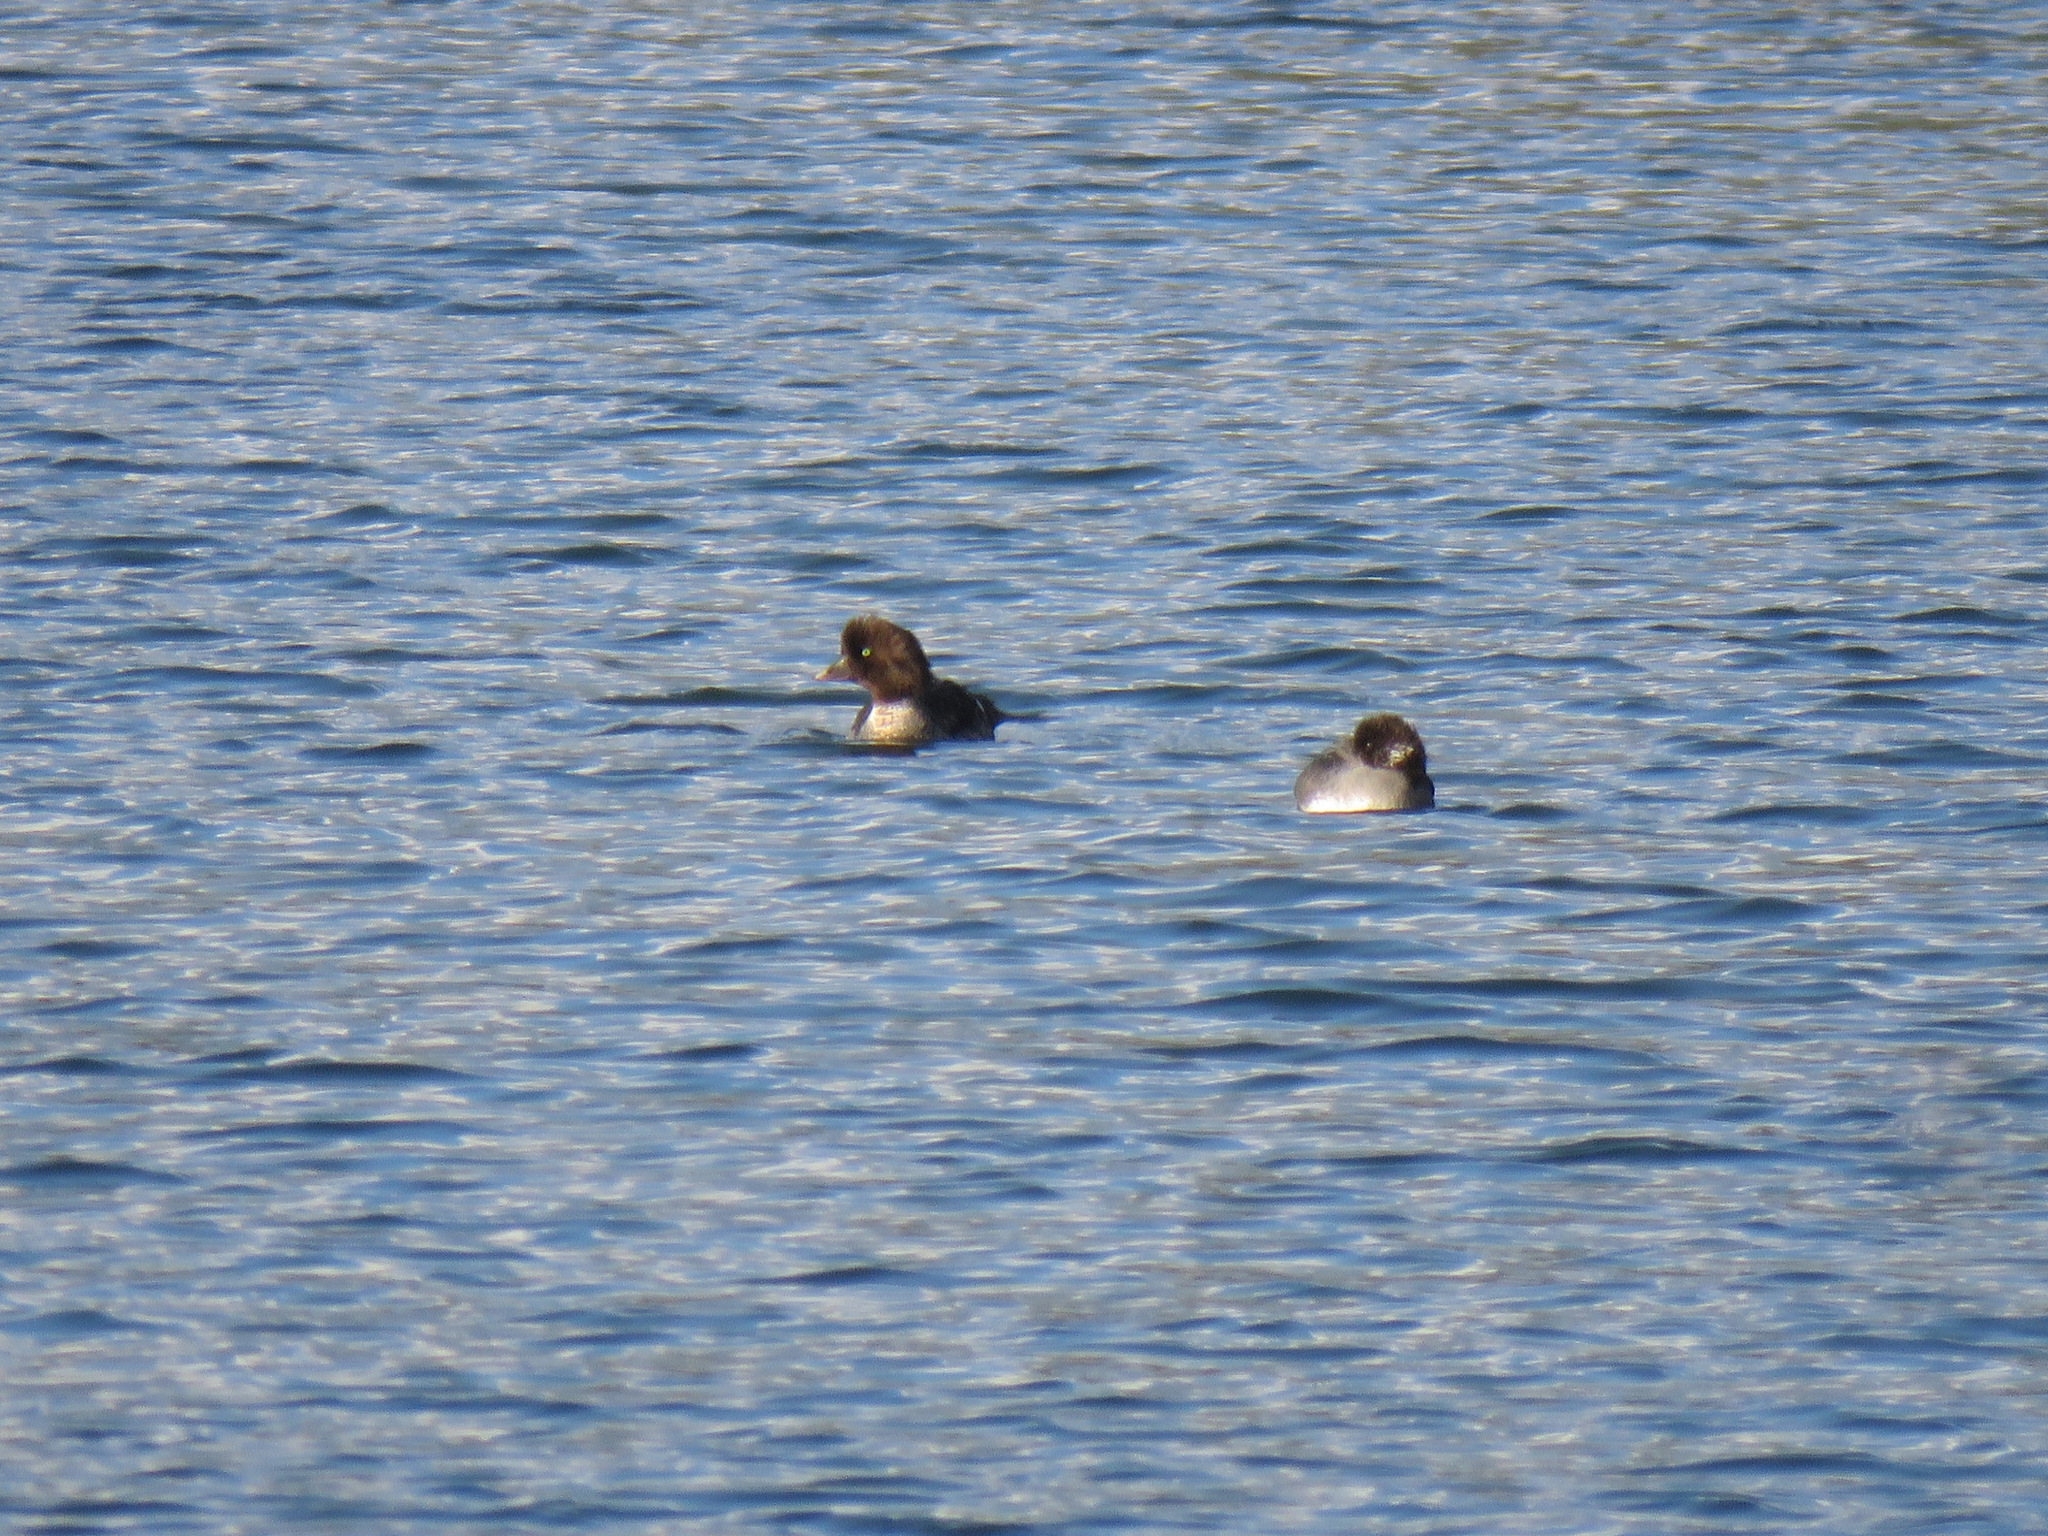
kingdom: Animalia
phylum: Chordata
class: Aves
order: Anseriformes
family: Anatidae
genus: Bucephala
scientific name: Bucephala islandica
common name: Barrow's goldeneye
